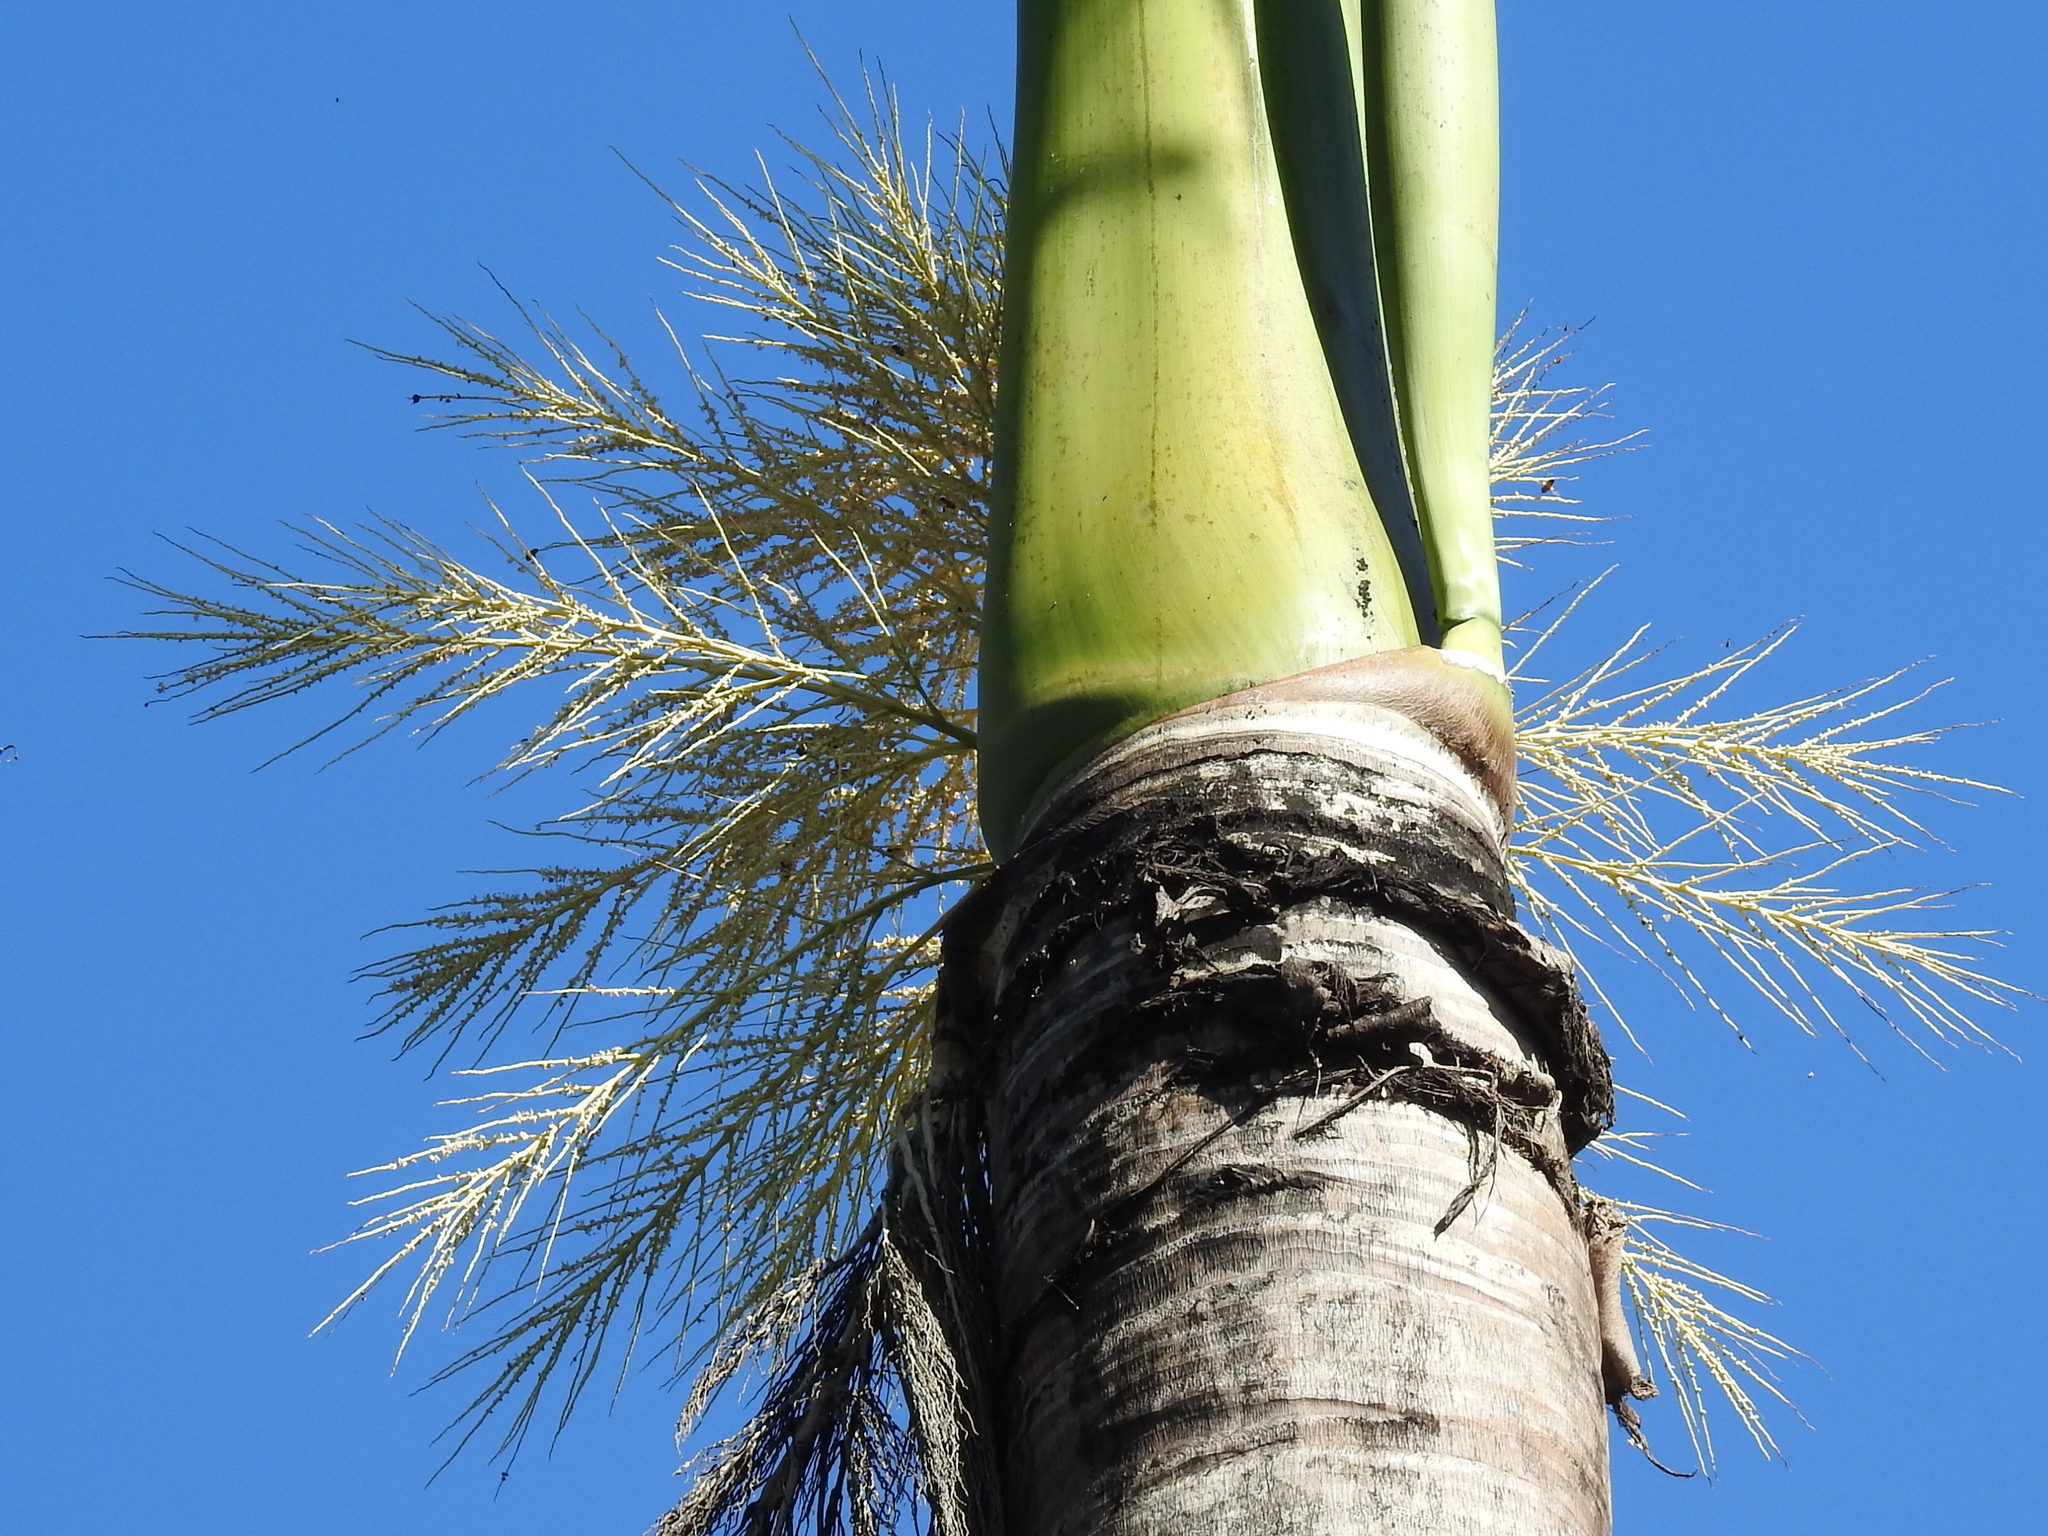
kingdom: Plantae
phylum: Tracheophyta
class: Liliopsida
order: Arecales
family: Arecaceae
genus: Roystonea
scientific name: Roystonea regia
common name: Florida royal palm
